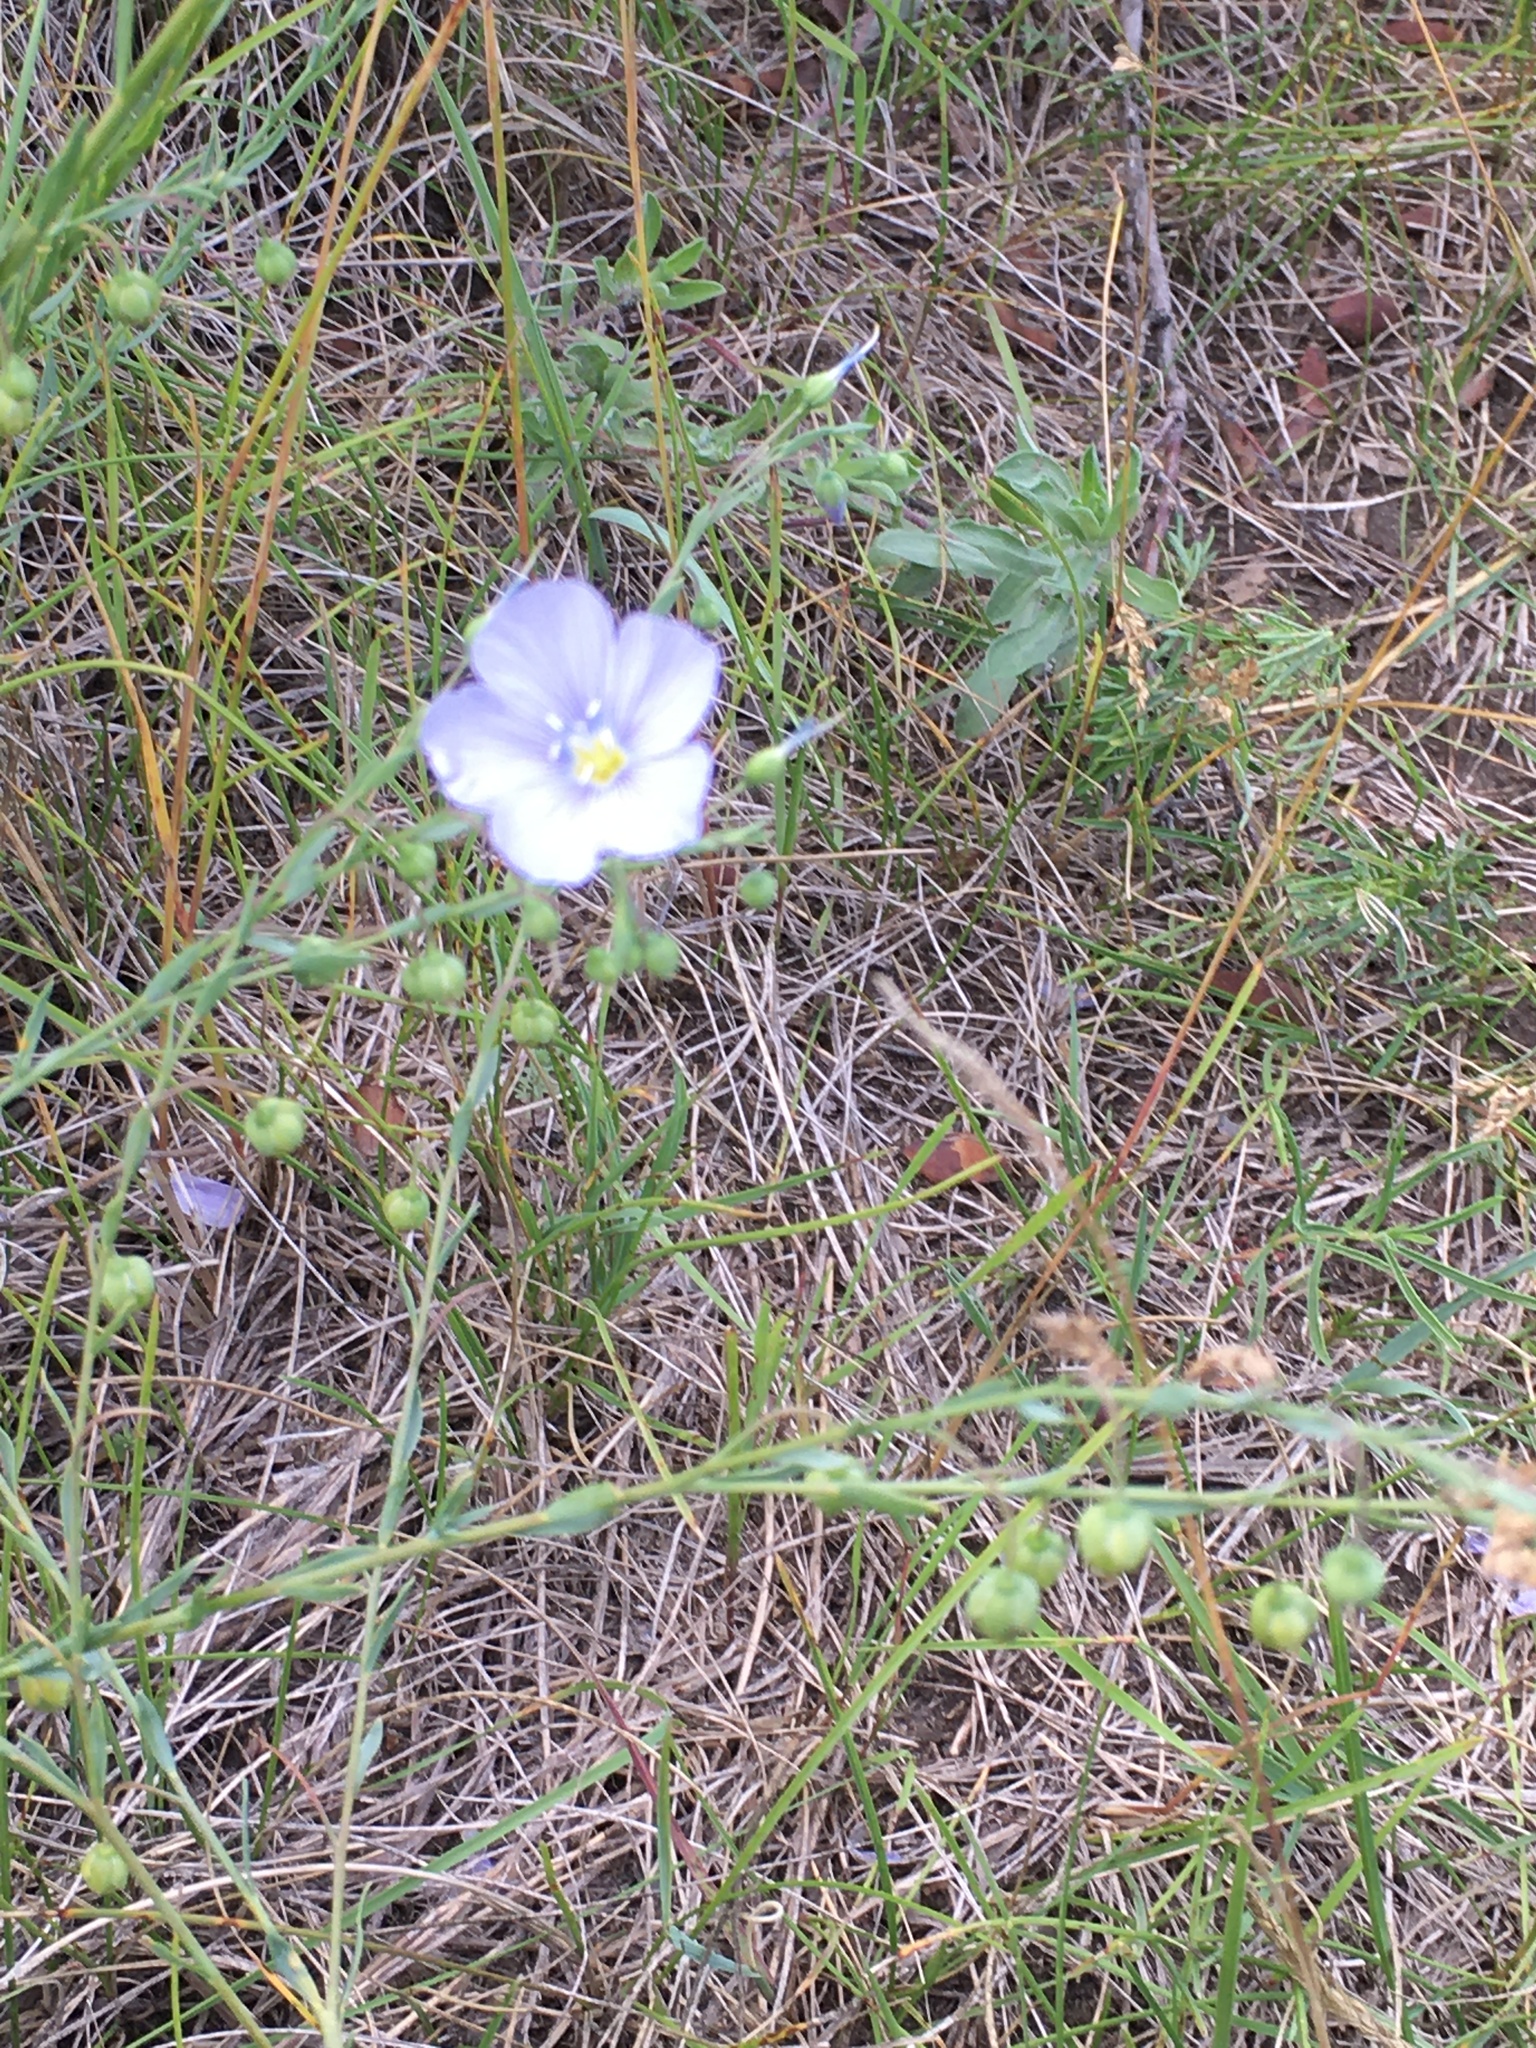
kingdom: Plantae
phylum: Tracheophyta
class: Magnoliopsida
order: Malpighiales
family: Linaceae
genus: Linum
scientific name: Linum lewisii
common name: Prairie flax
